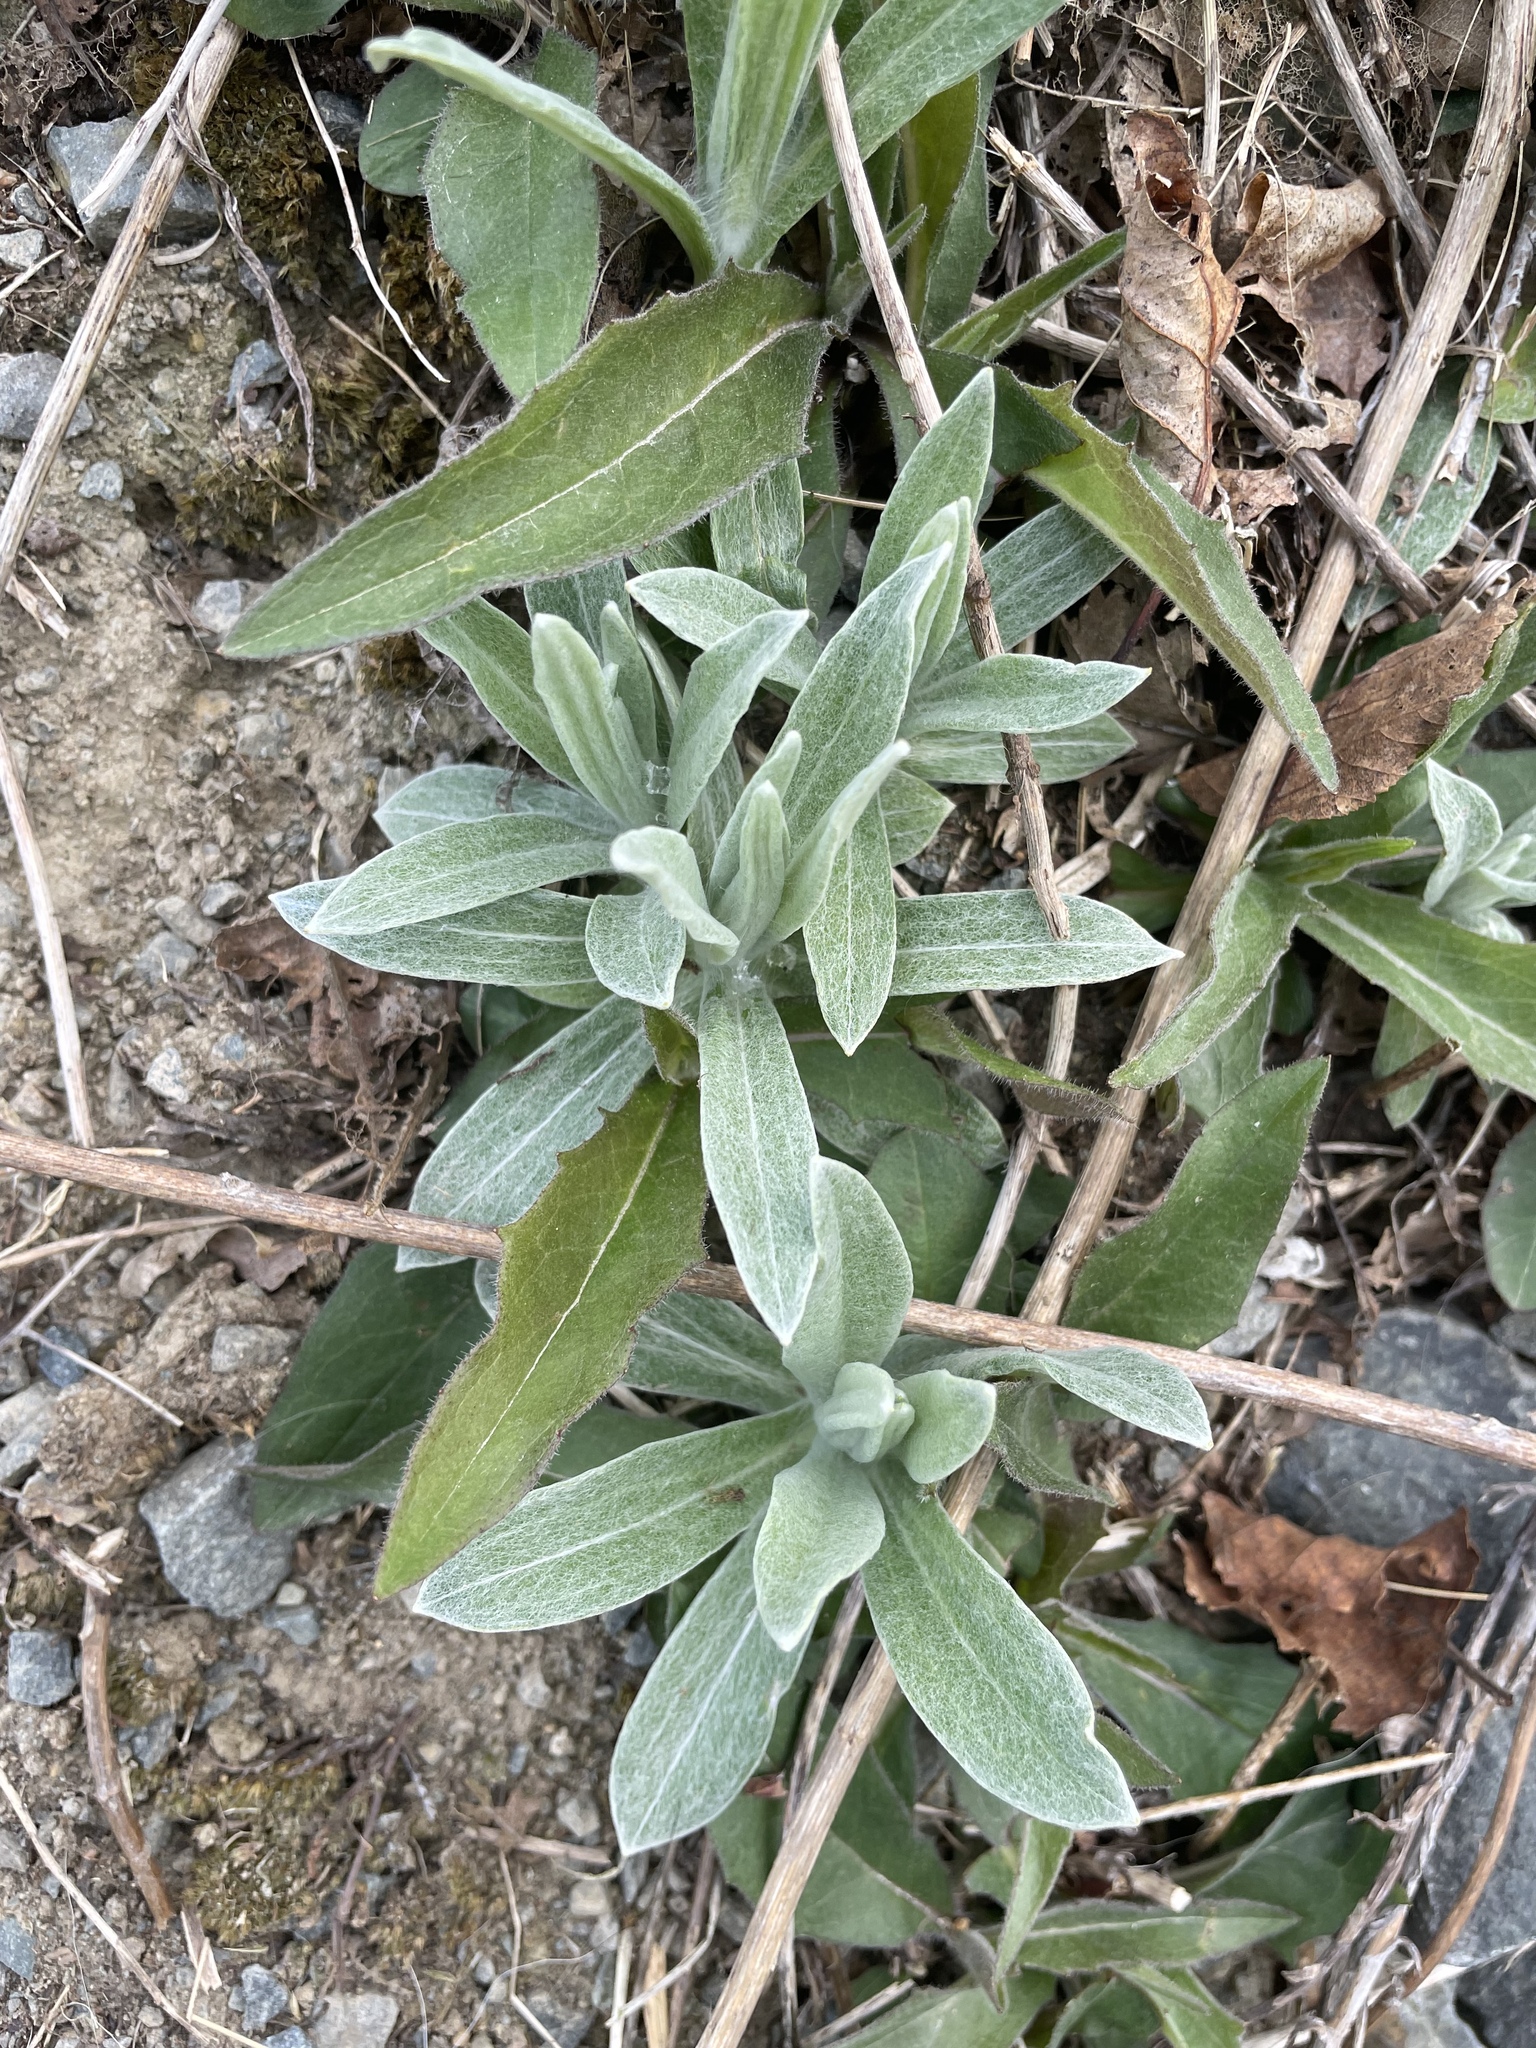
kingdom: Plantae
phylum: Tracheophyta
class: Magnoliopsida
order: Asterales
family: Asteraceae
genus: Anaphalis
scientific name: Anaphalis margaritacea
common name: Pearly everlasting
